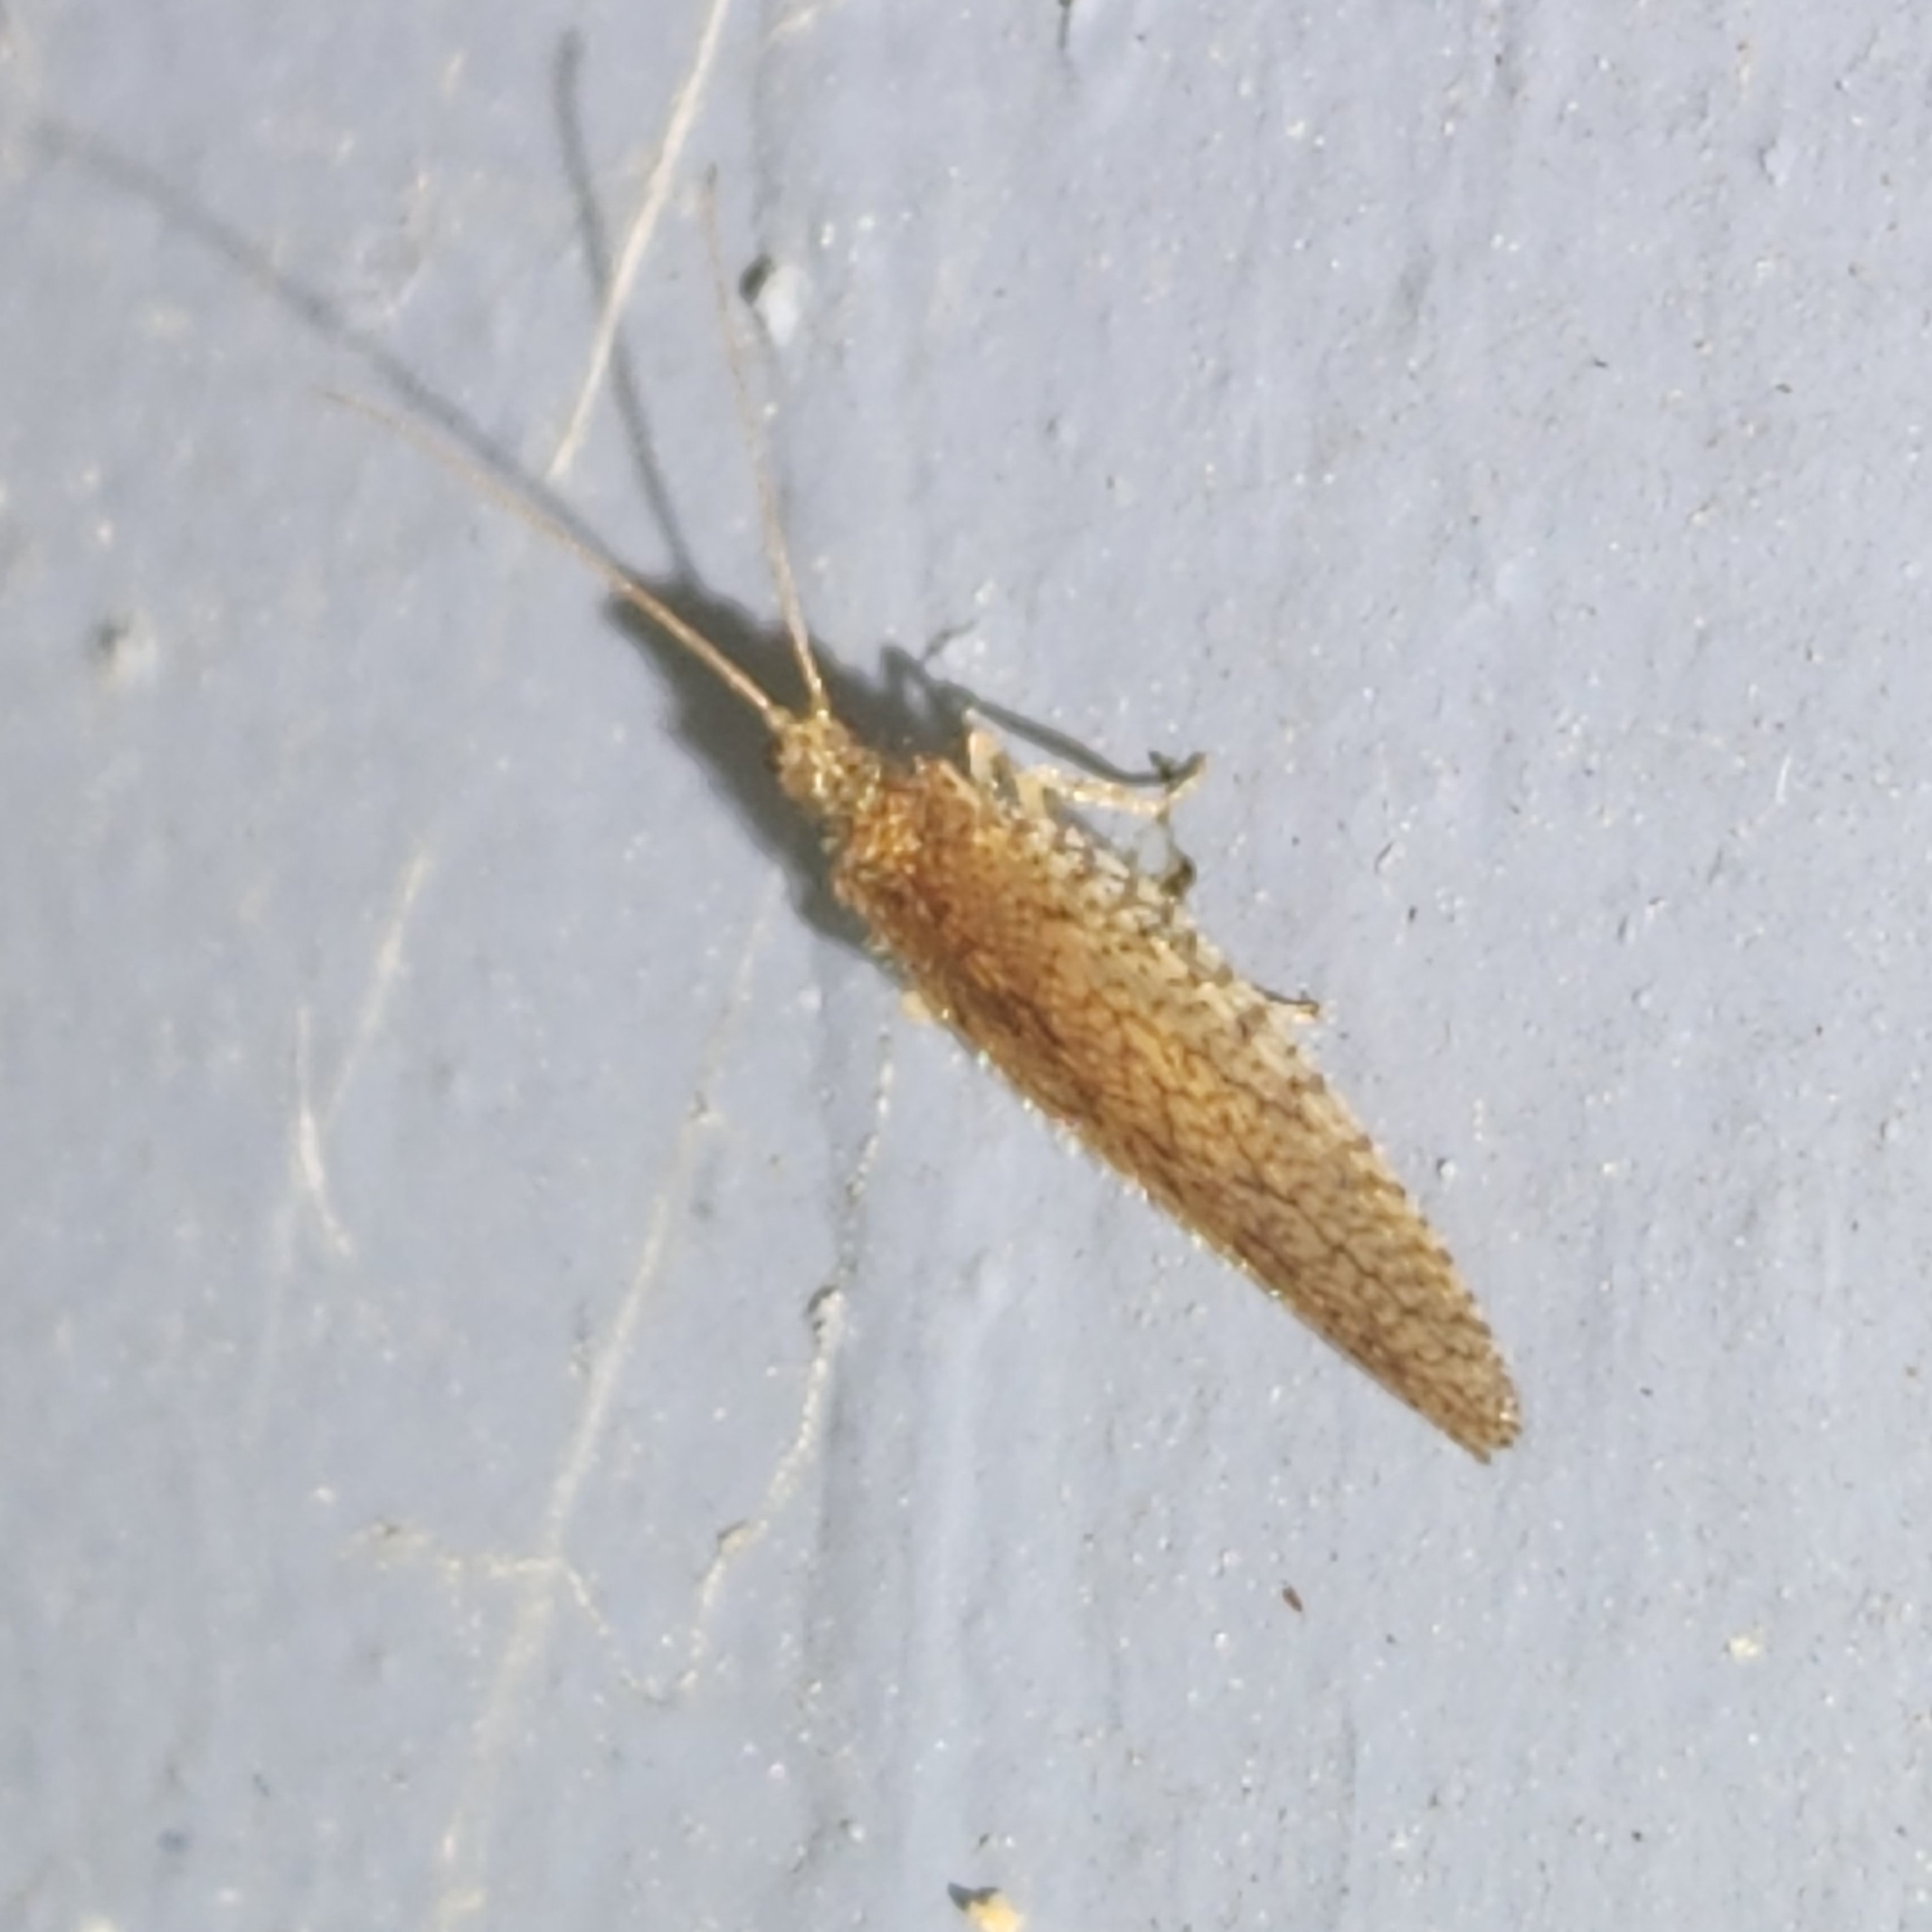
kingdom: Animalia
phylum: Arthropoda
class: Insecta
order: Neuroptera
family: Hemerobiidae
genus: Micromus
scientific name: Micromus posticus
